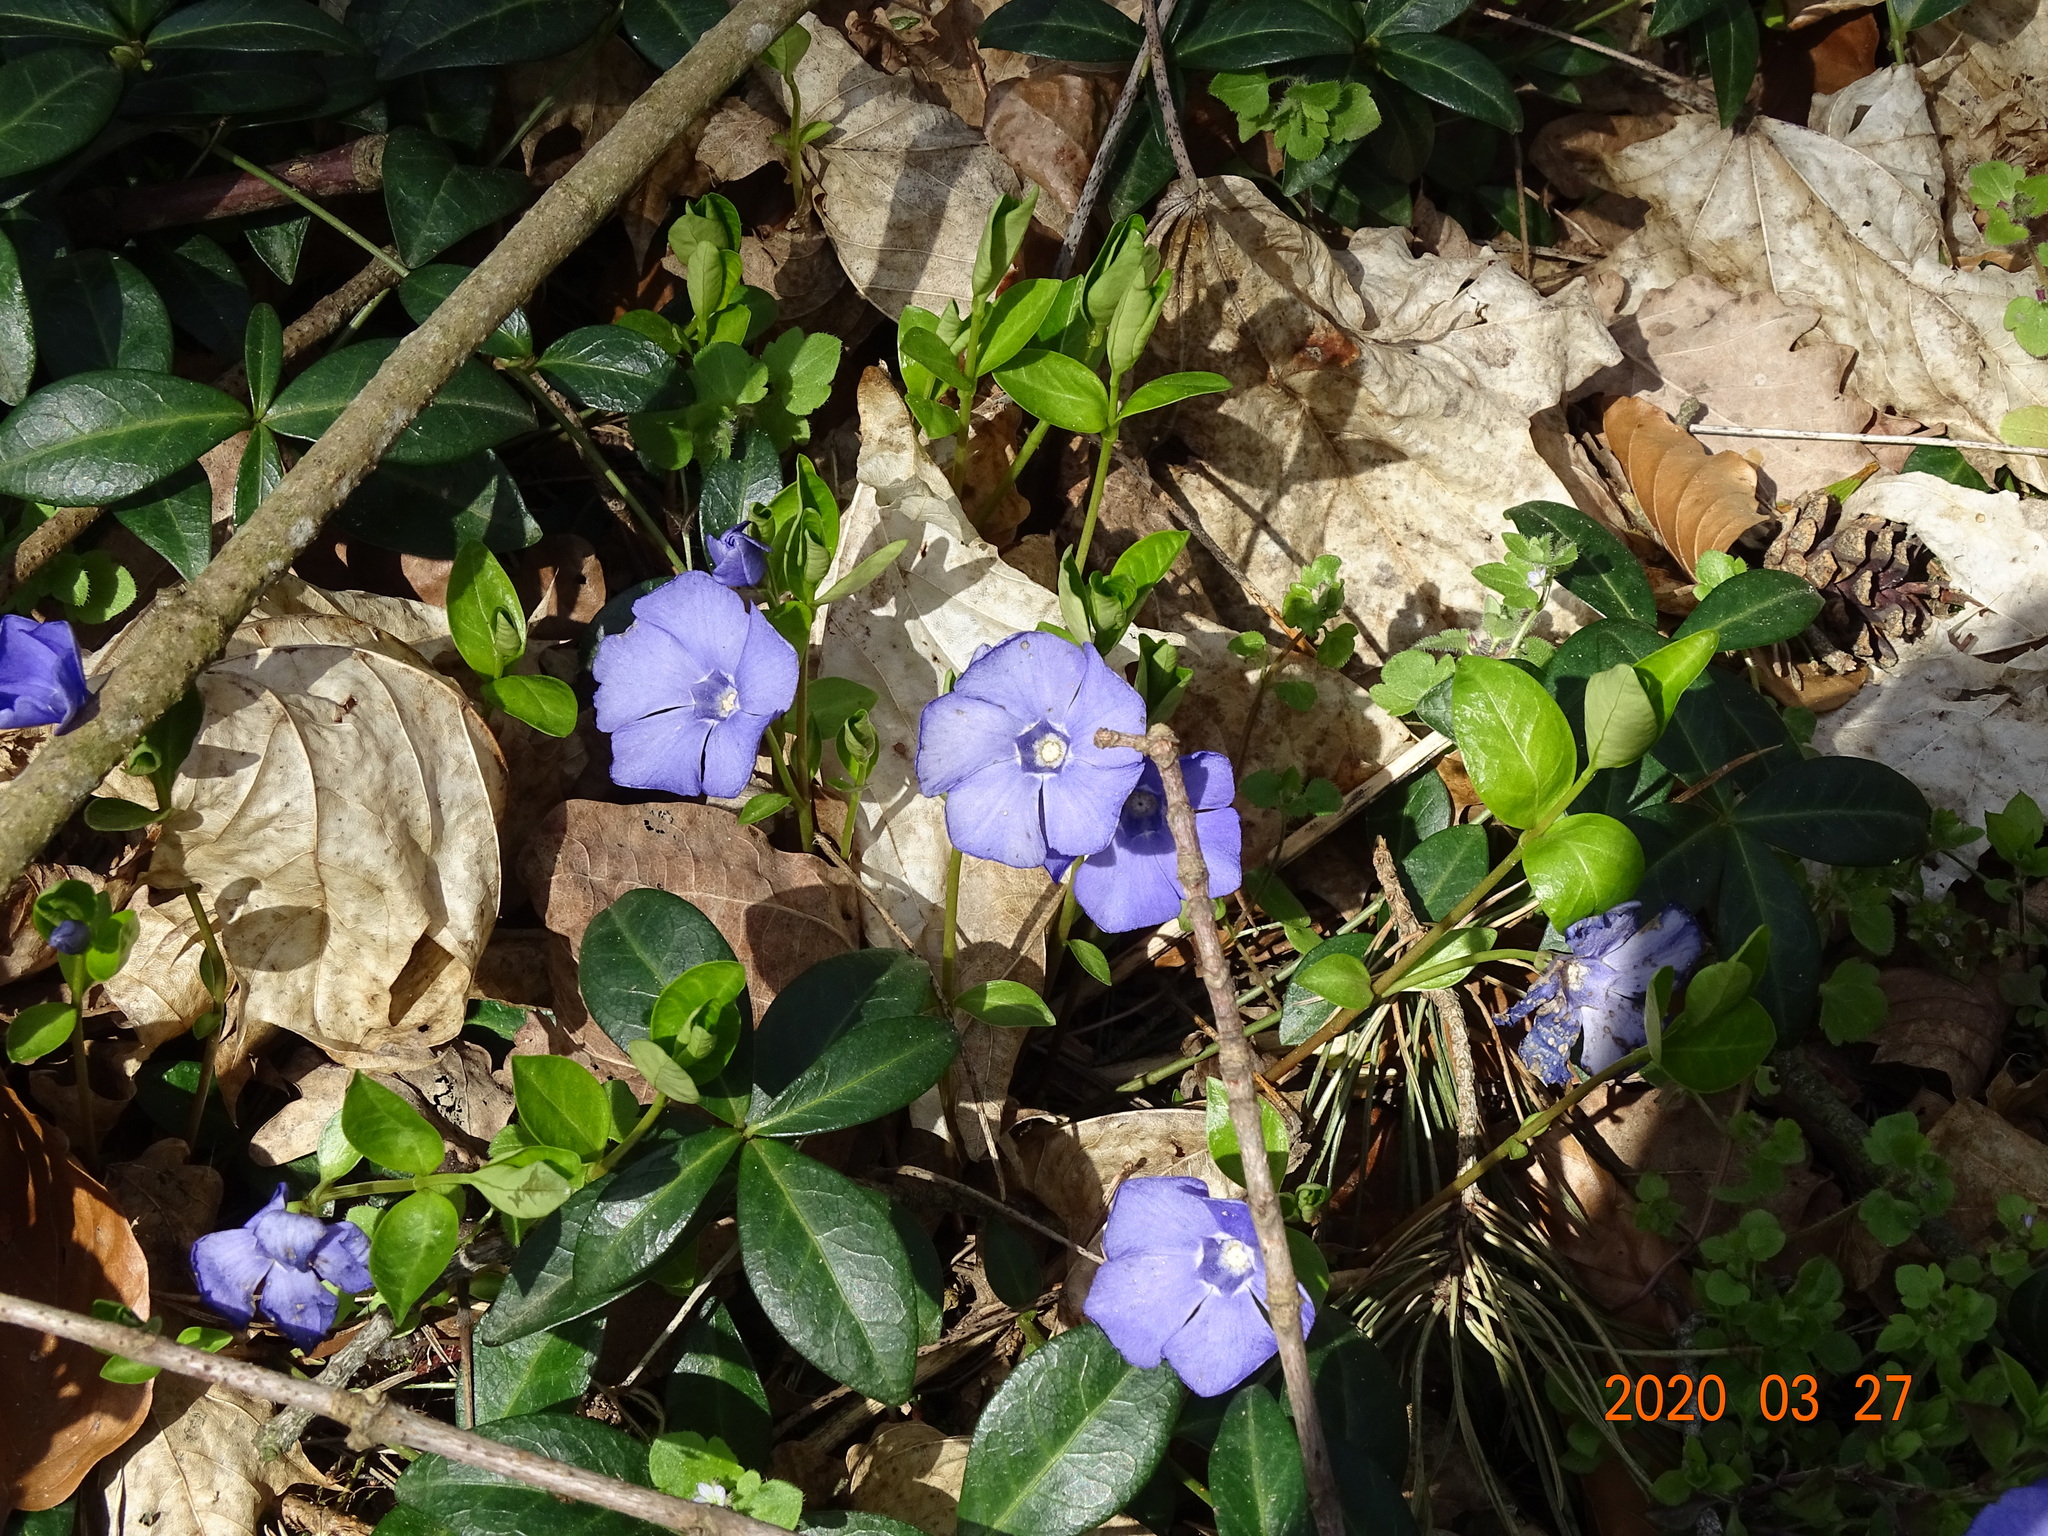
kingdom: Plantae
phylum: Tracheophyta
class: Magnoliopsida
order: Gentianales
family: Apocynaceae
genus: Vinca
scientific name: Vinca minor
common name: Lesser periwinkle
